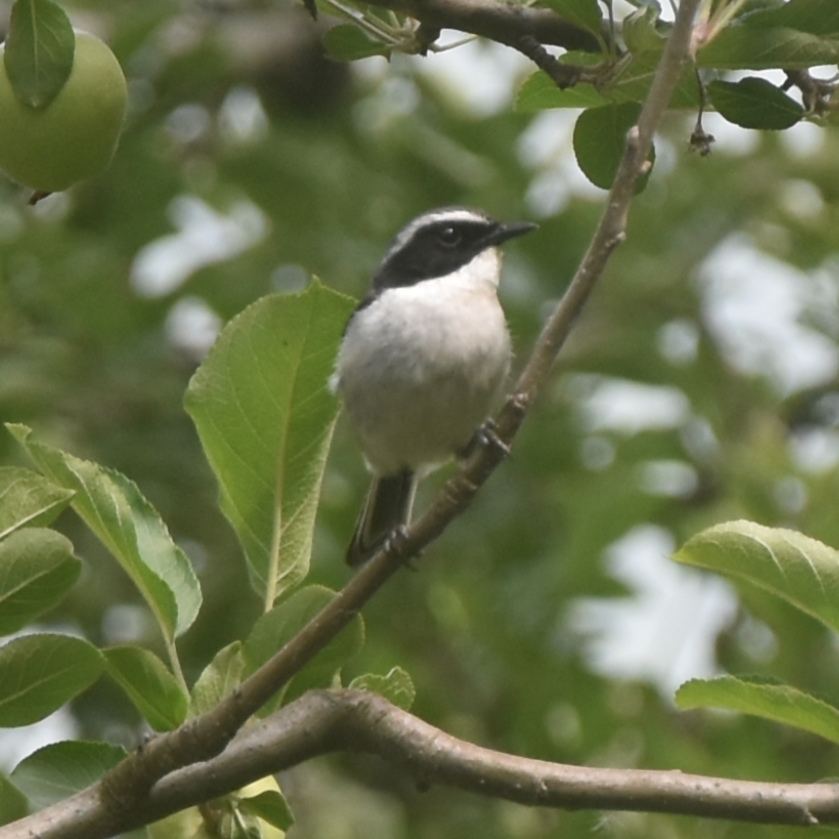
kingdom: Animalia
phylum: Chordata
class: Aves
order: Passeriformes
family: Muscicapidae
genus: Saxicola
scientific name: Saxicola ferreus
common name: Grey bush chat
